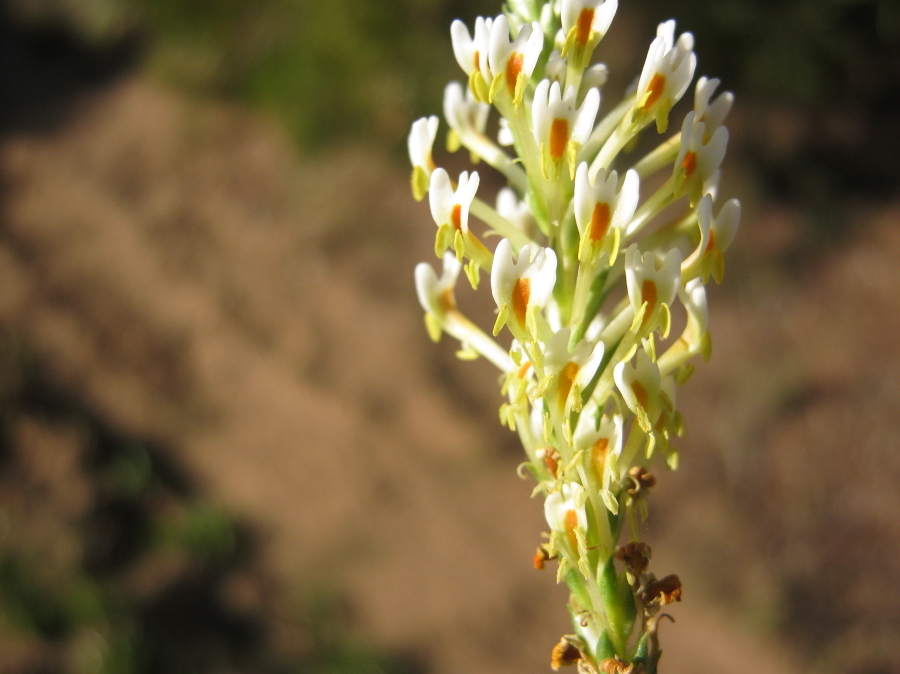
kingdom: Plantae
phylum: Tracheophyta
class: Magnoliopsida
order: Lamiales
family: Scrophulariaceae
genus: Hebenstretia
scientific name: Hebenstretia integrifolia
